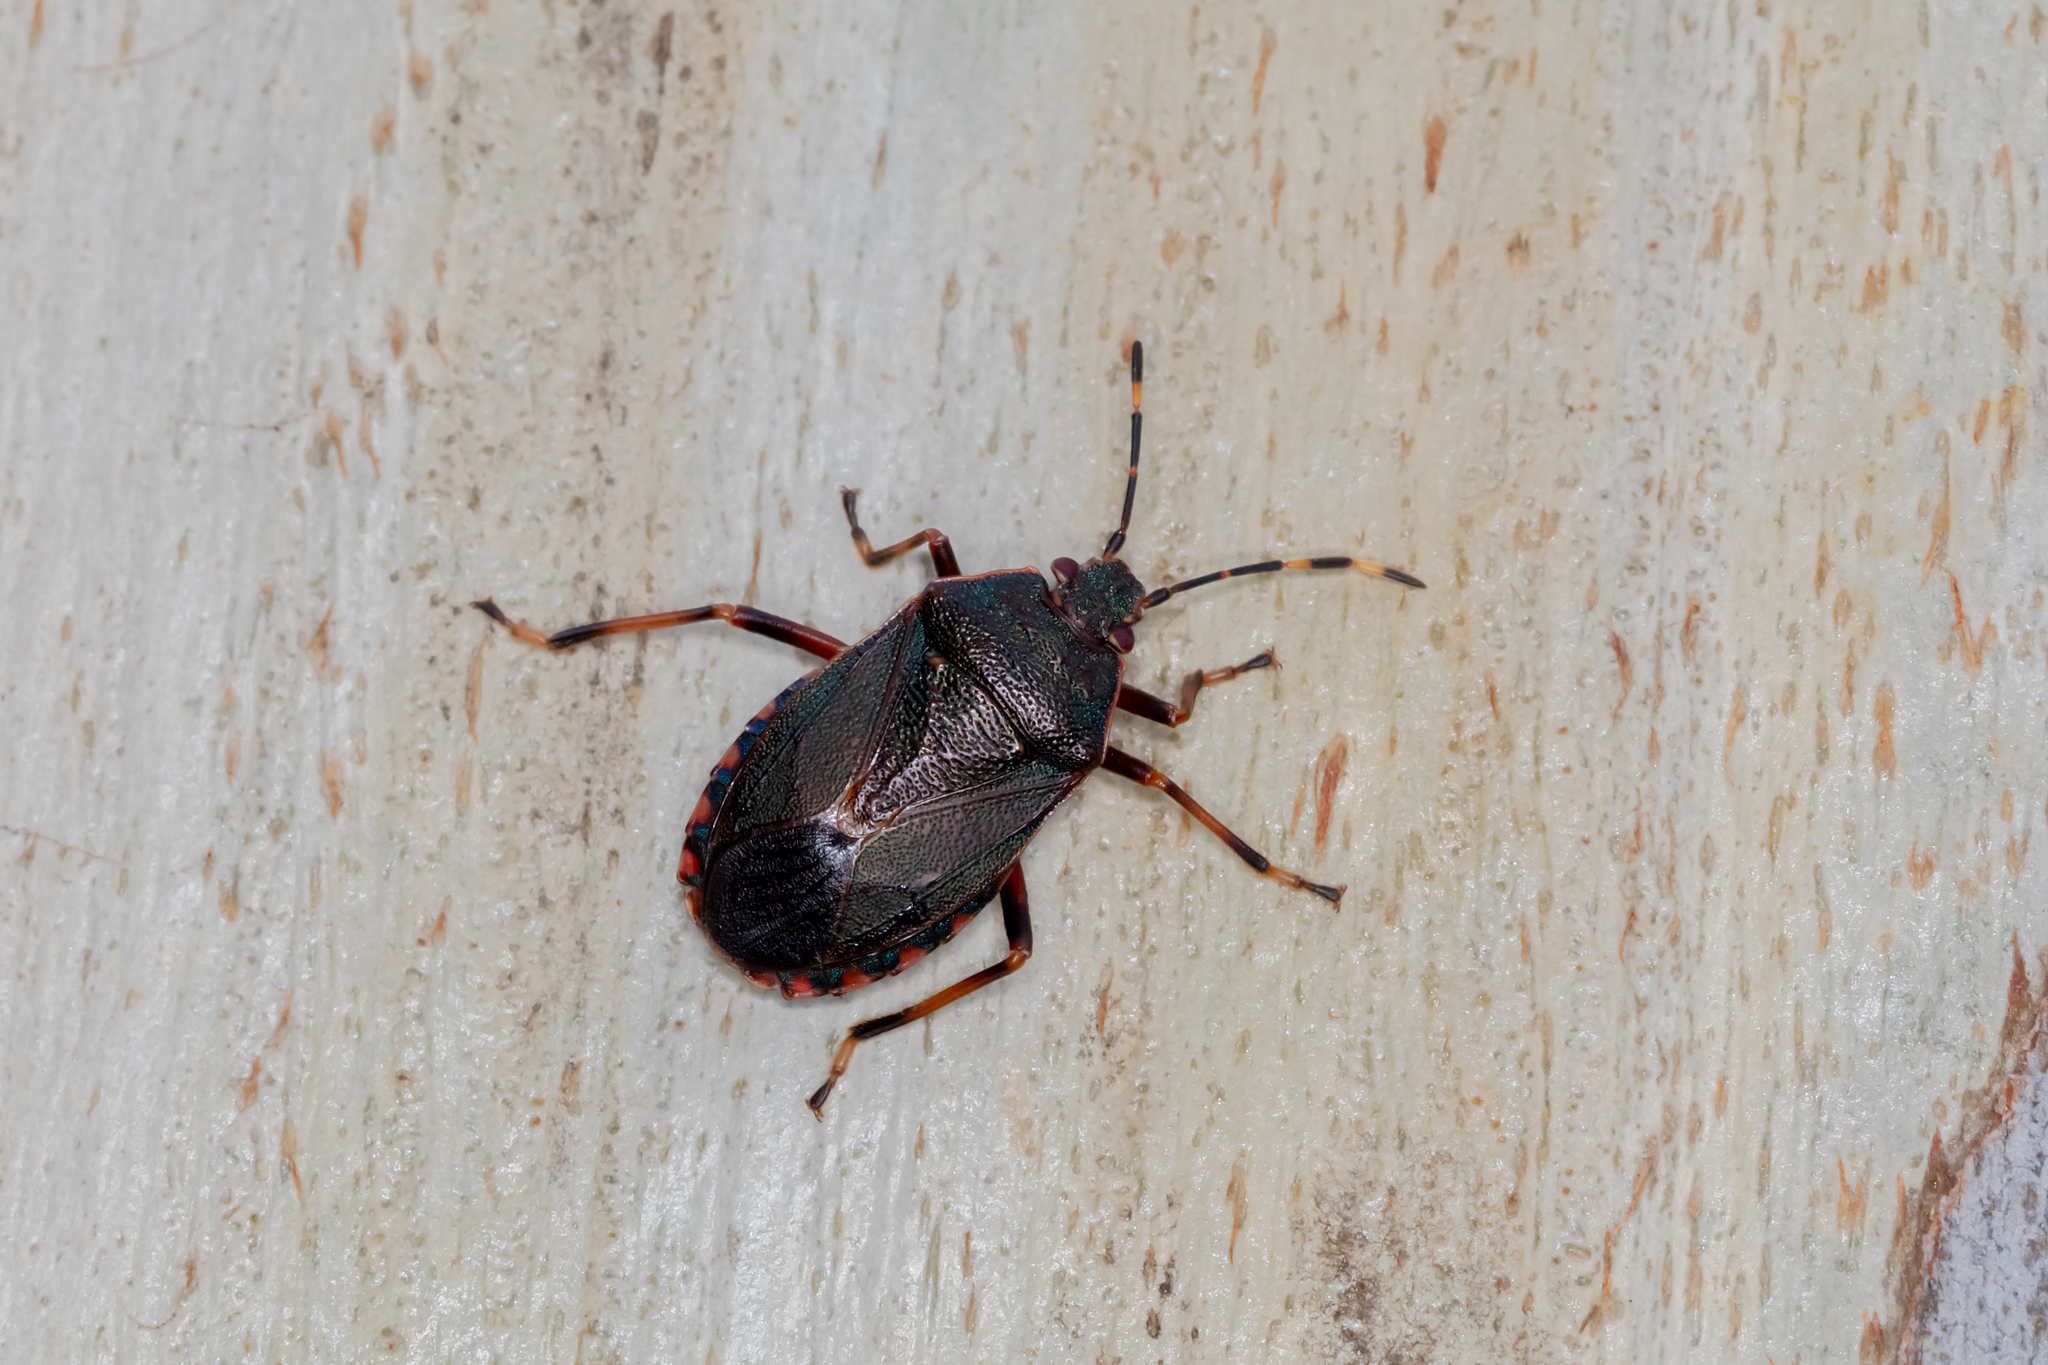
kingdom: Animalia
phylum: Arthropoda
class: Insecta
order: Hemiptera
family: Pentatomidae
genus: Notius
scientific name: Notius
